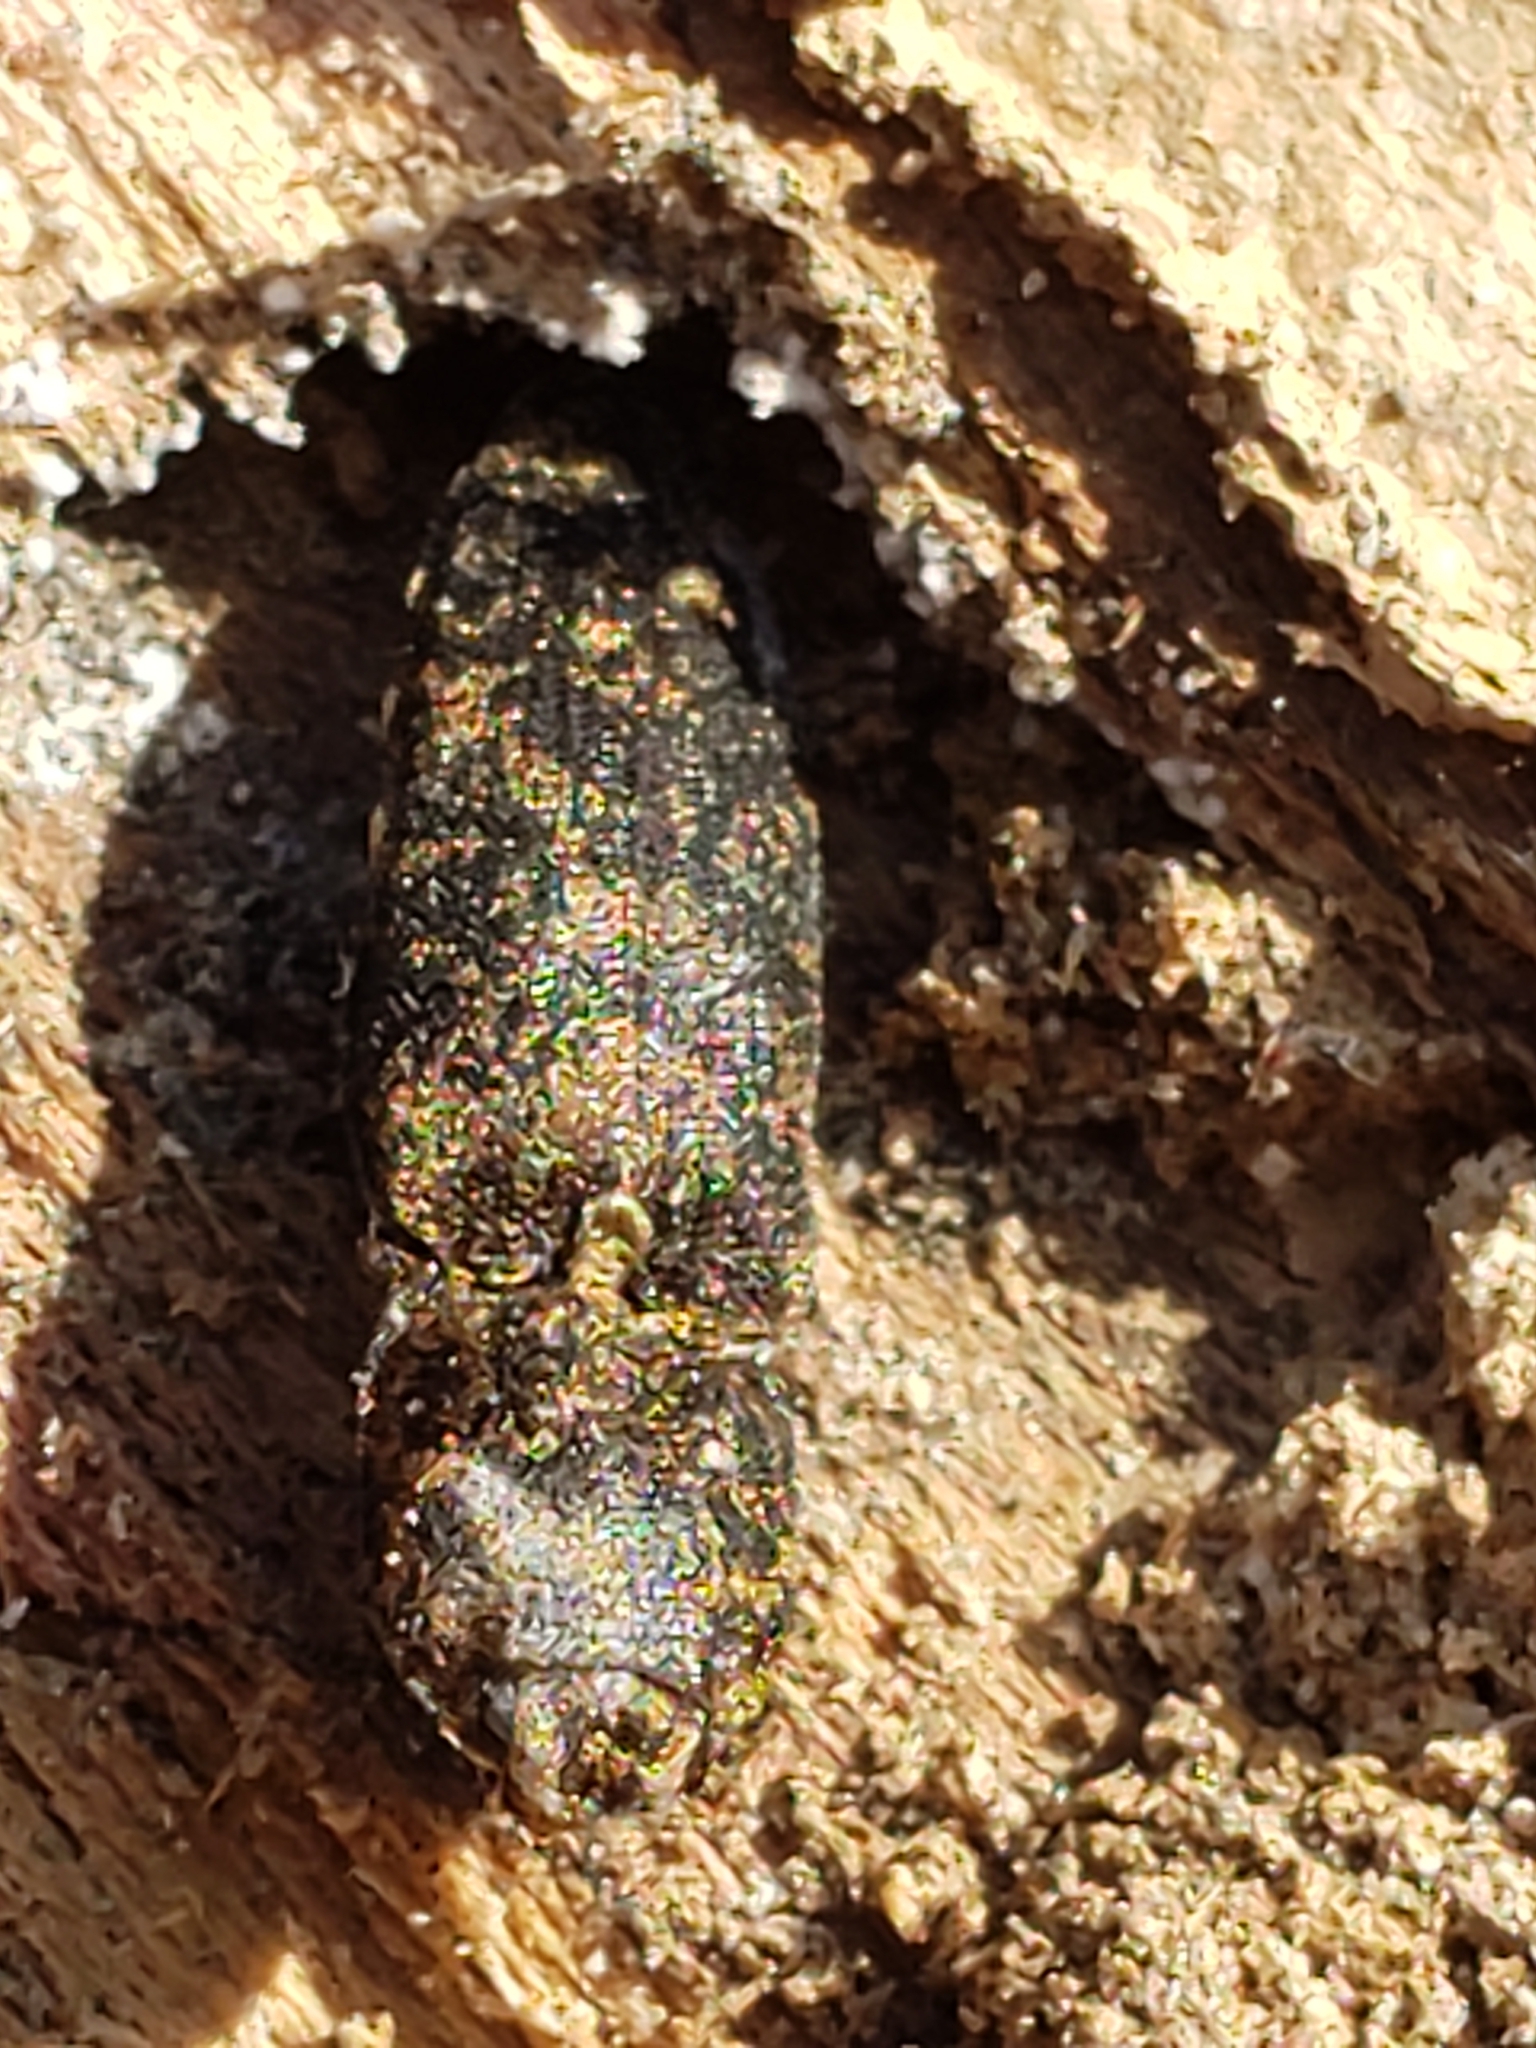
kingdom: Animalia
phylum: Arthropoda
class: Insecta
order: Coleoptera
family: Elateridae
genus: Lacon
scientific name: Lacon marmoratus
